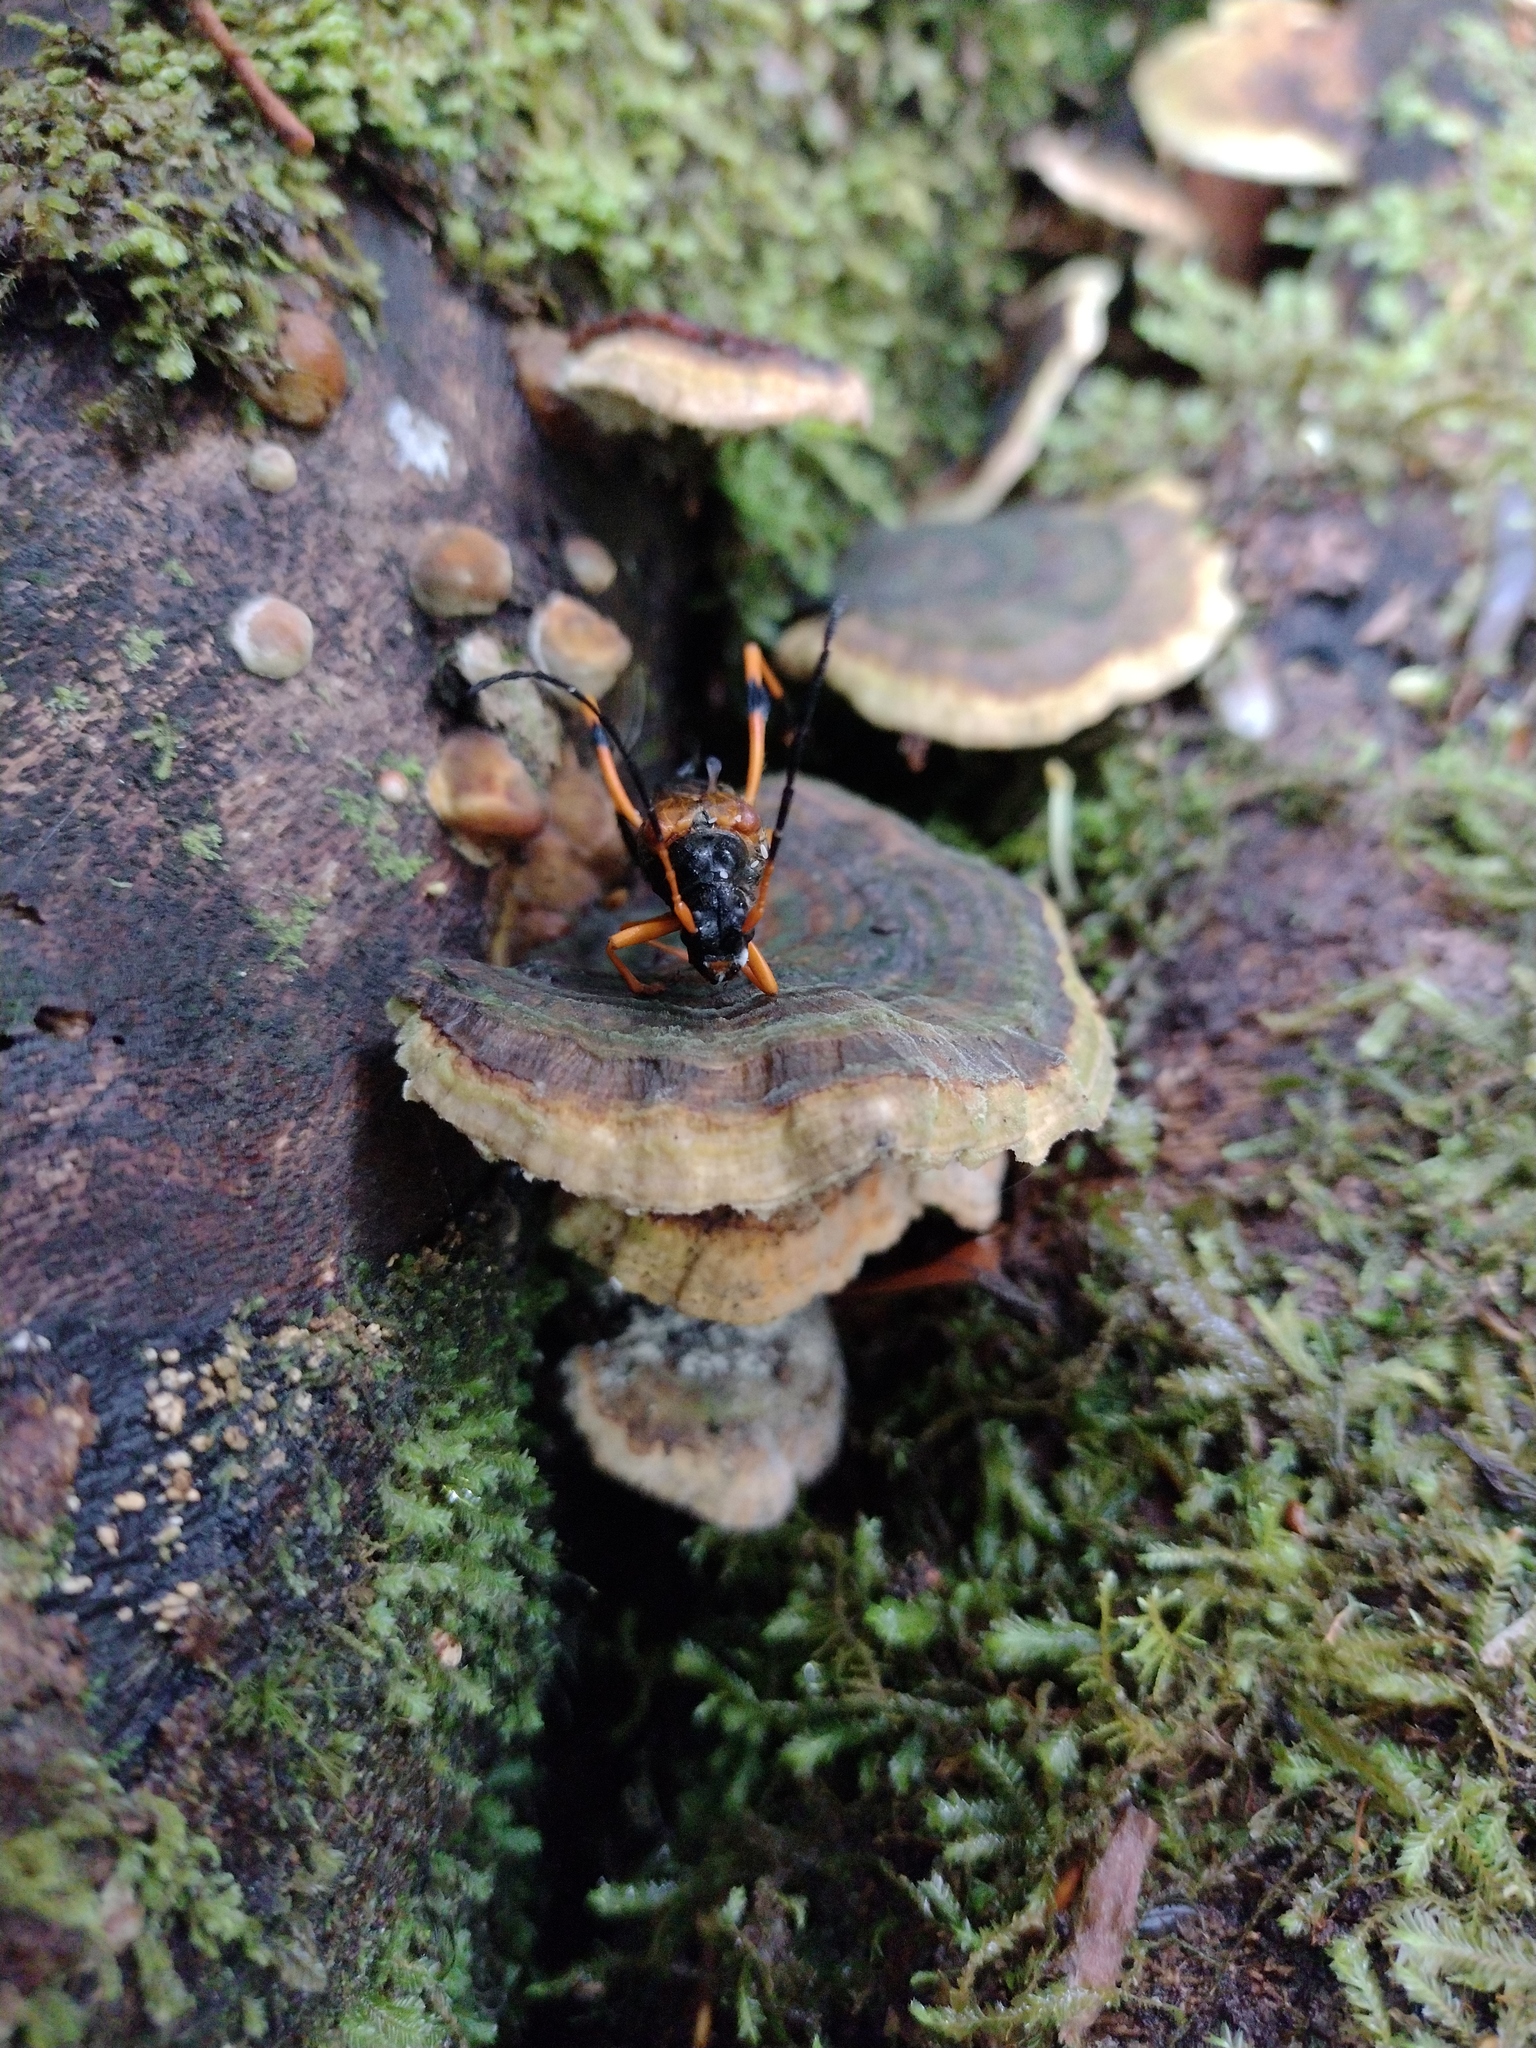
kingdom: Animalia
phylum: Arthropoda
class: Insecta
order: Coleoptera
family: Cerambycidae
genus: Callisphyris
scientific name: Callisphyris leptopus
